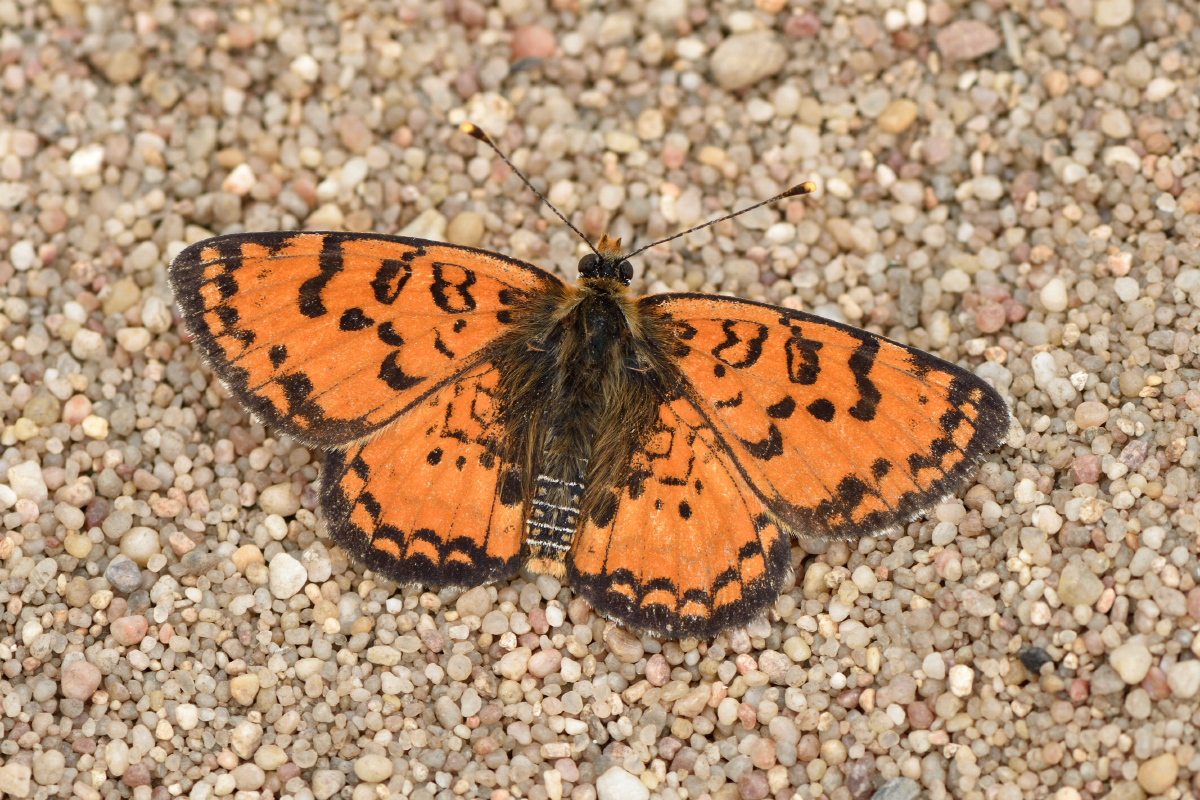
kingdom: Animalia
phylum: Arthropoda
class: Insecta
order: Lepidoptera
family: Nymphalidae
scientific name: Nymphalidae
